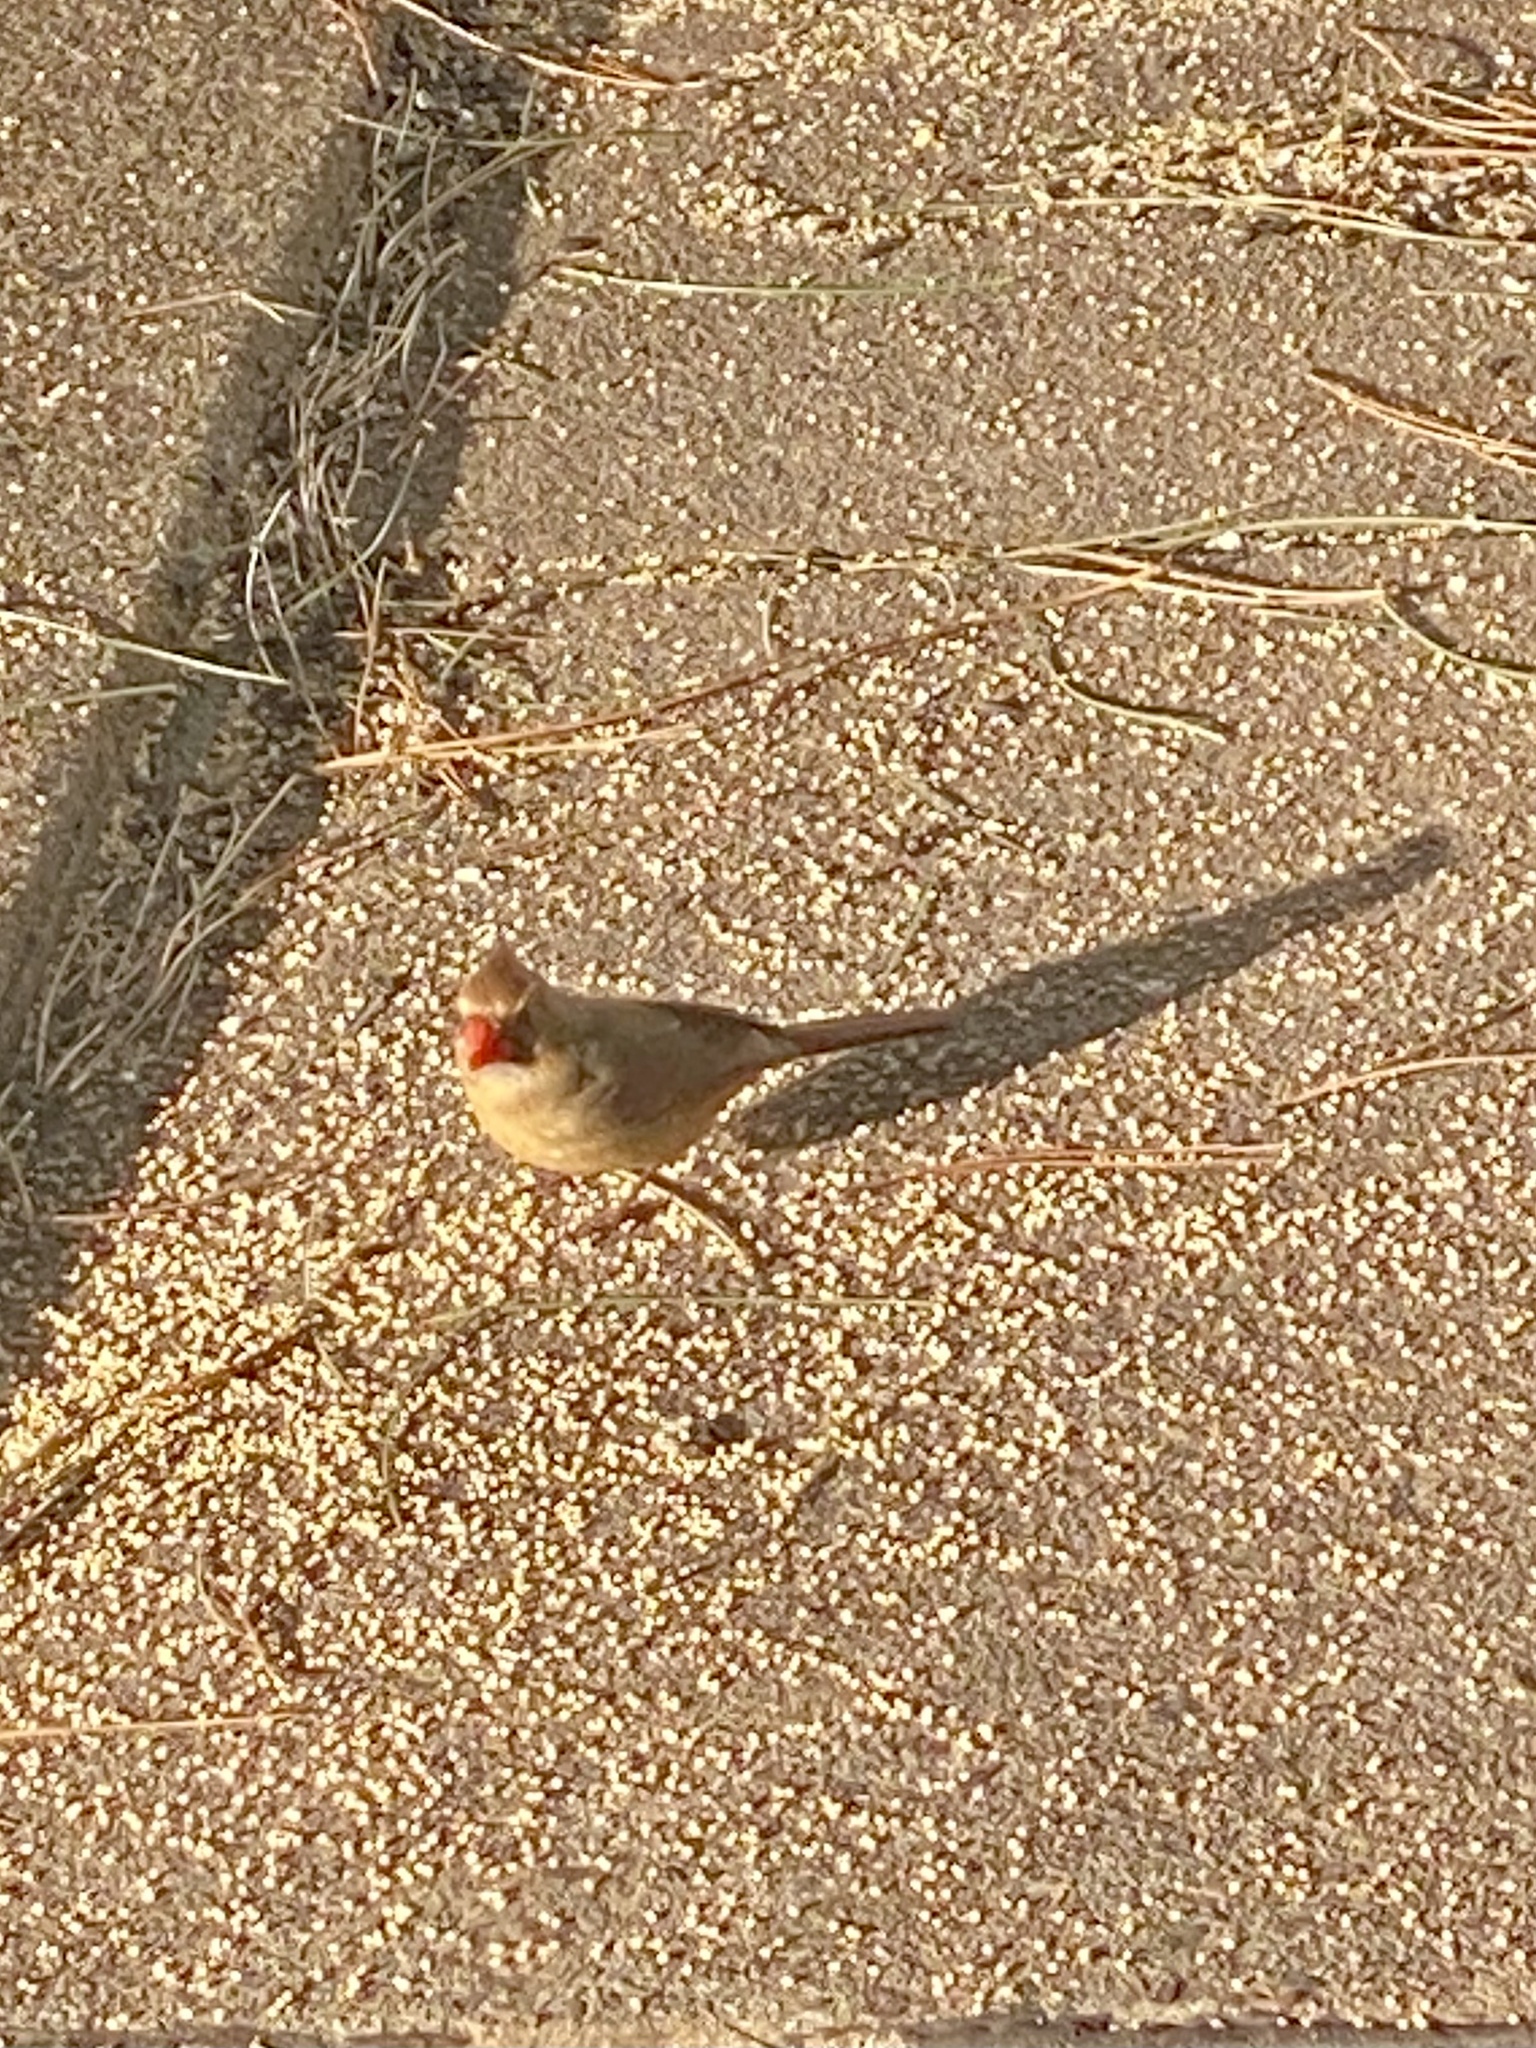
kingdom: Animalia
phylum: Chordata
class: Aves
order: Passeriformes
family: Cardinalidae
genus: Cardinalis
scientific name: Cardinalis cardinalis
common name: Northern cardinal
